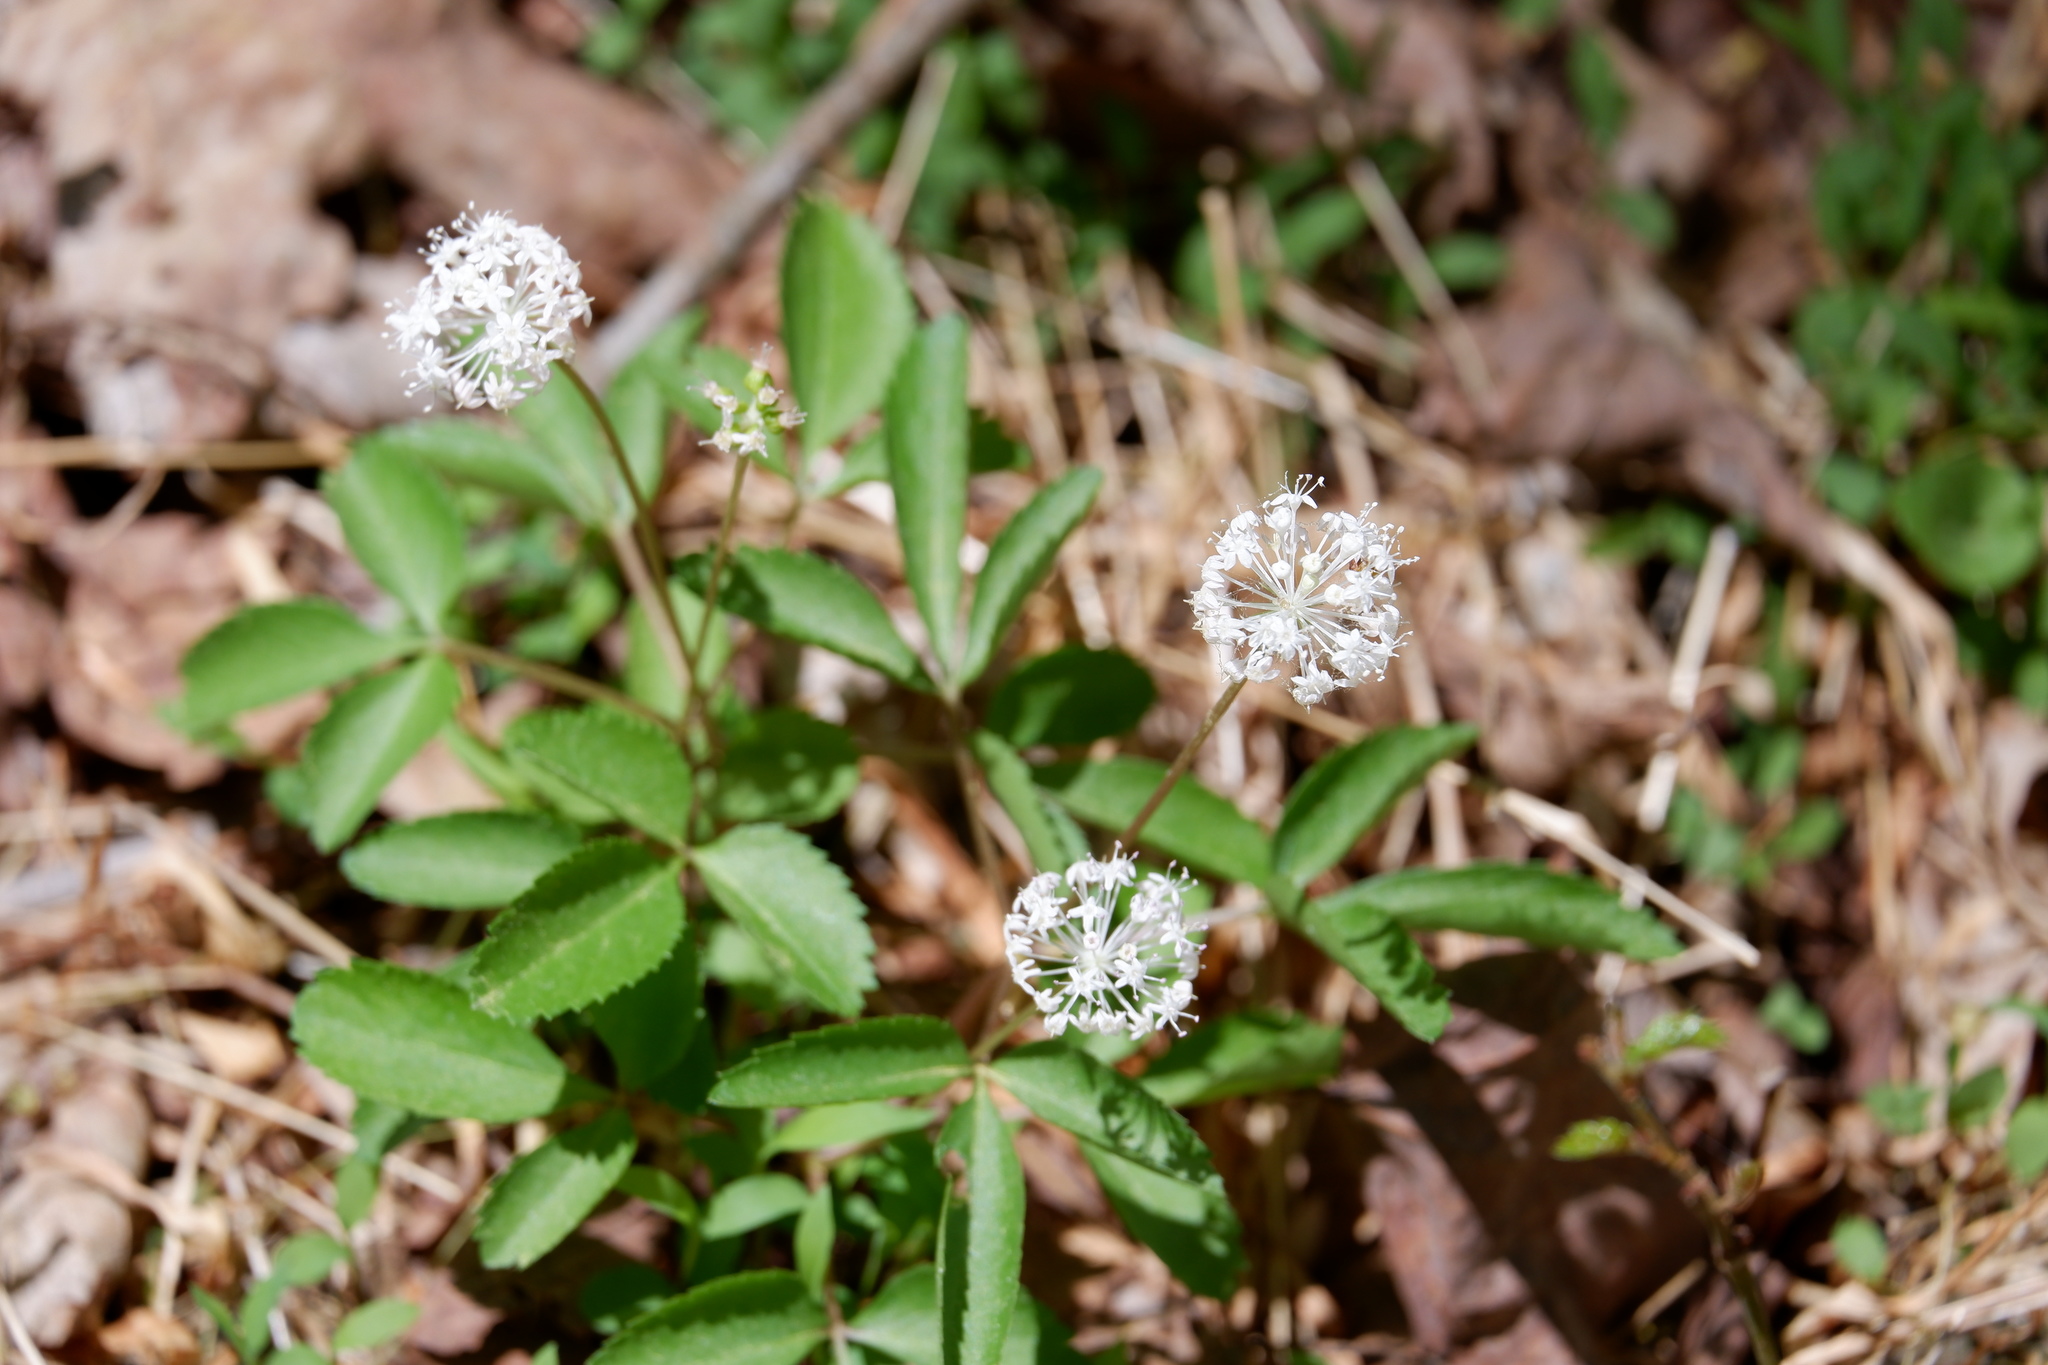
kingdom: Plantae
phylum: Tracheophyta
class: Magnoliopsida
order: Apiales
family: Araliaceae
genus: Panax
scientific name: Panax trifolius
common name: Dwarf ginseng
